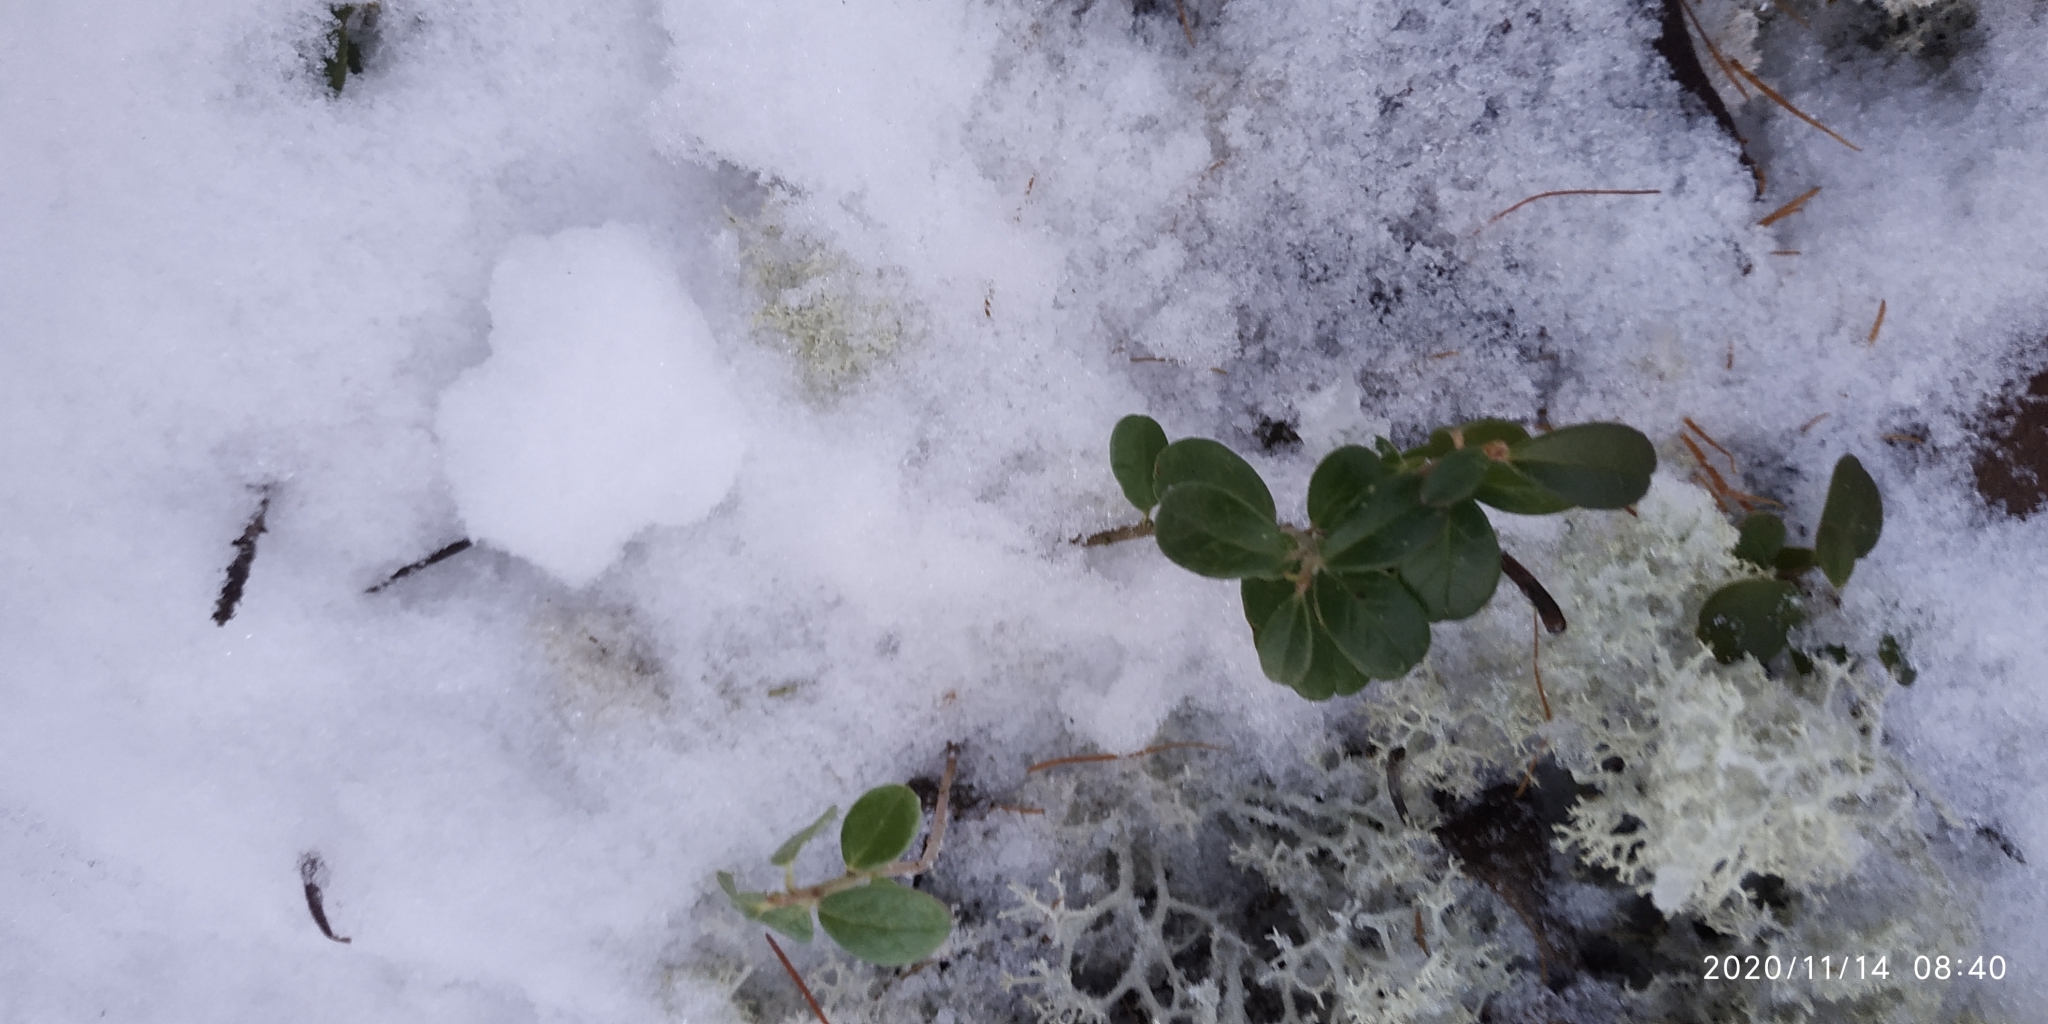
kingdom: Plantae
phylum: Tracheophyta
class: Magnoliopsida
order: Ericales
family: Ericaceae
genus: Vaccinium
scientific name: Vaccinium vitis-idaea
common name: Cowberry
